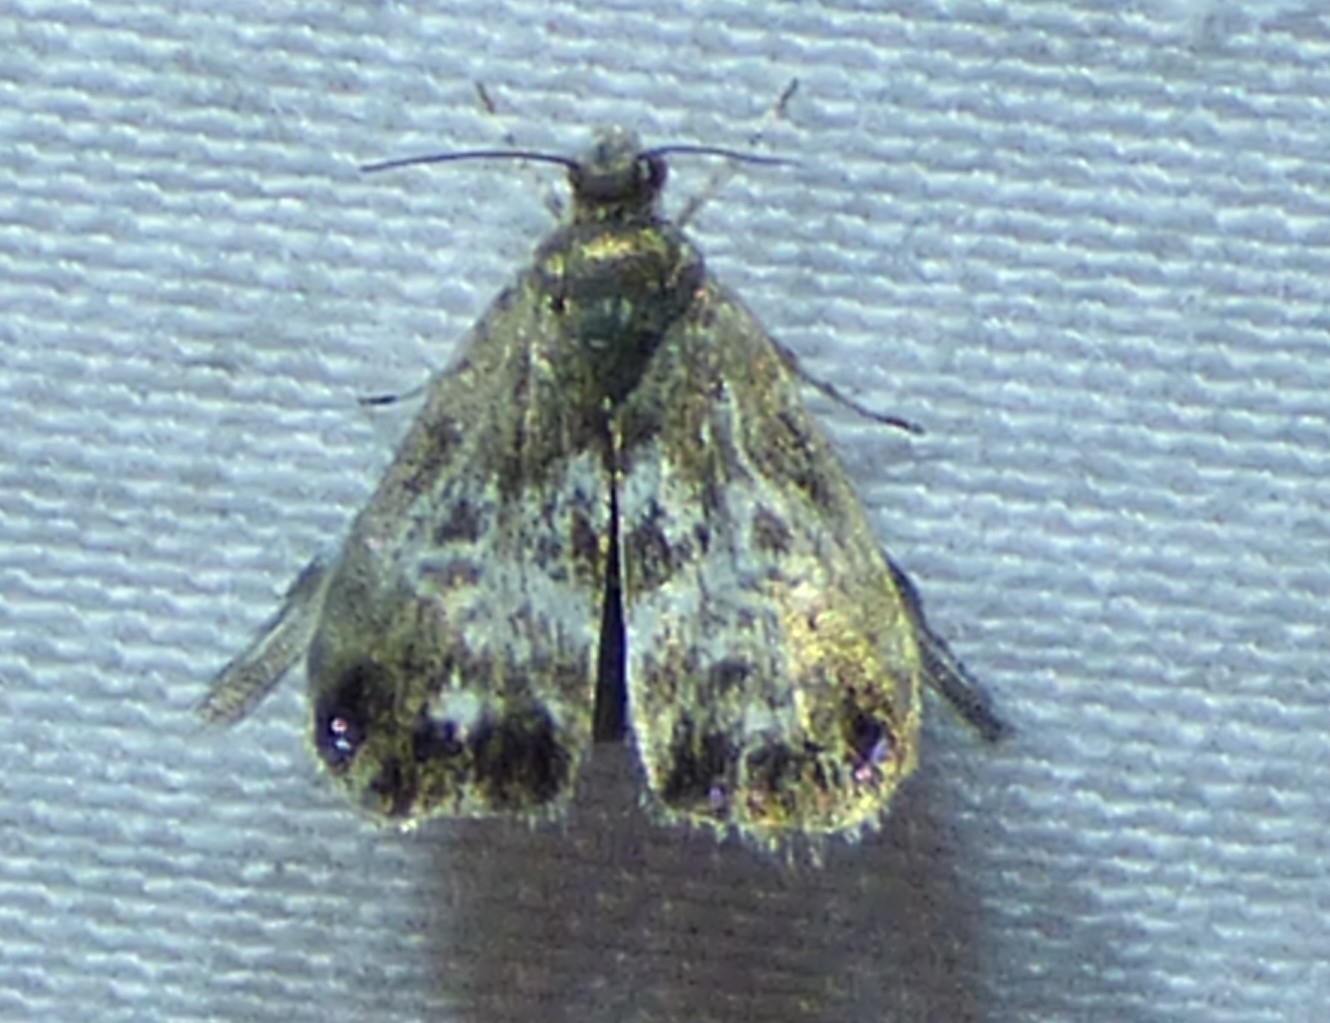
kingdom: Animalia
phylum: Arthropoda
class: Insecta
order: Lepidoptera
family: Choreutidae
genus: Brenthia
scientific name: Brenthia pavonacella
